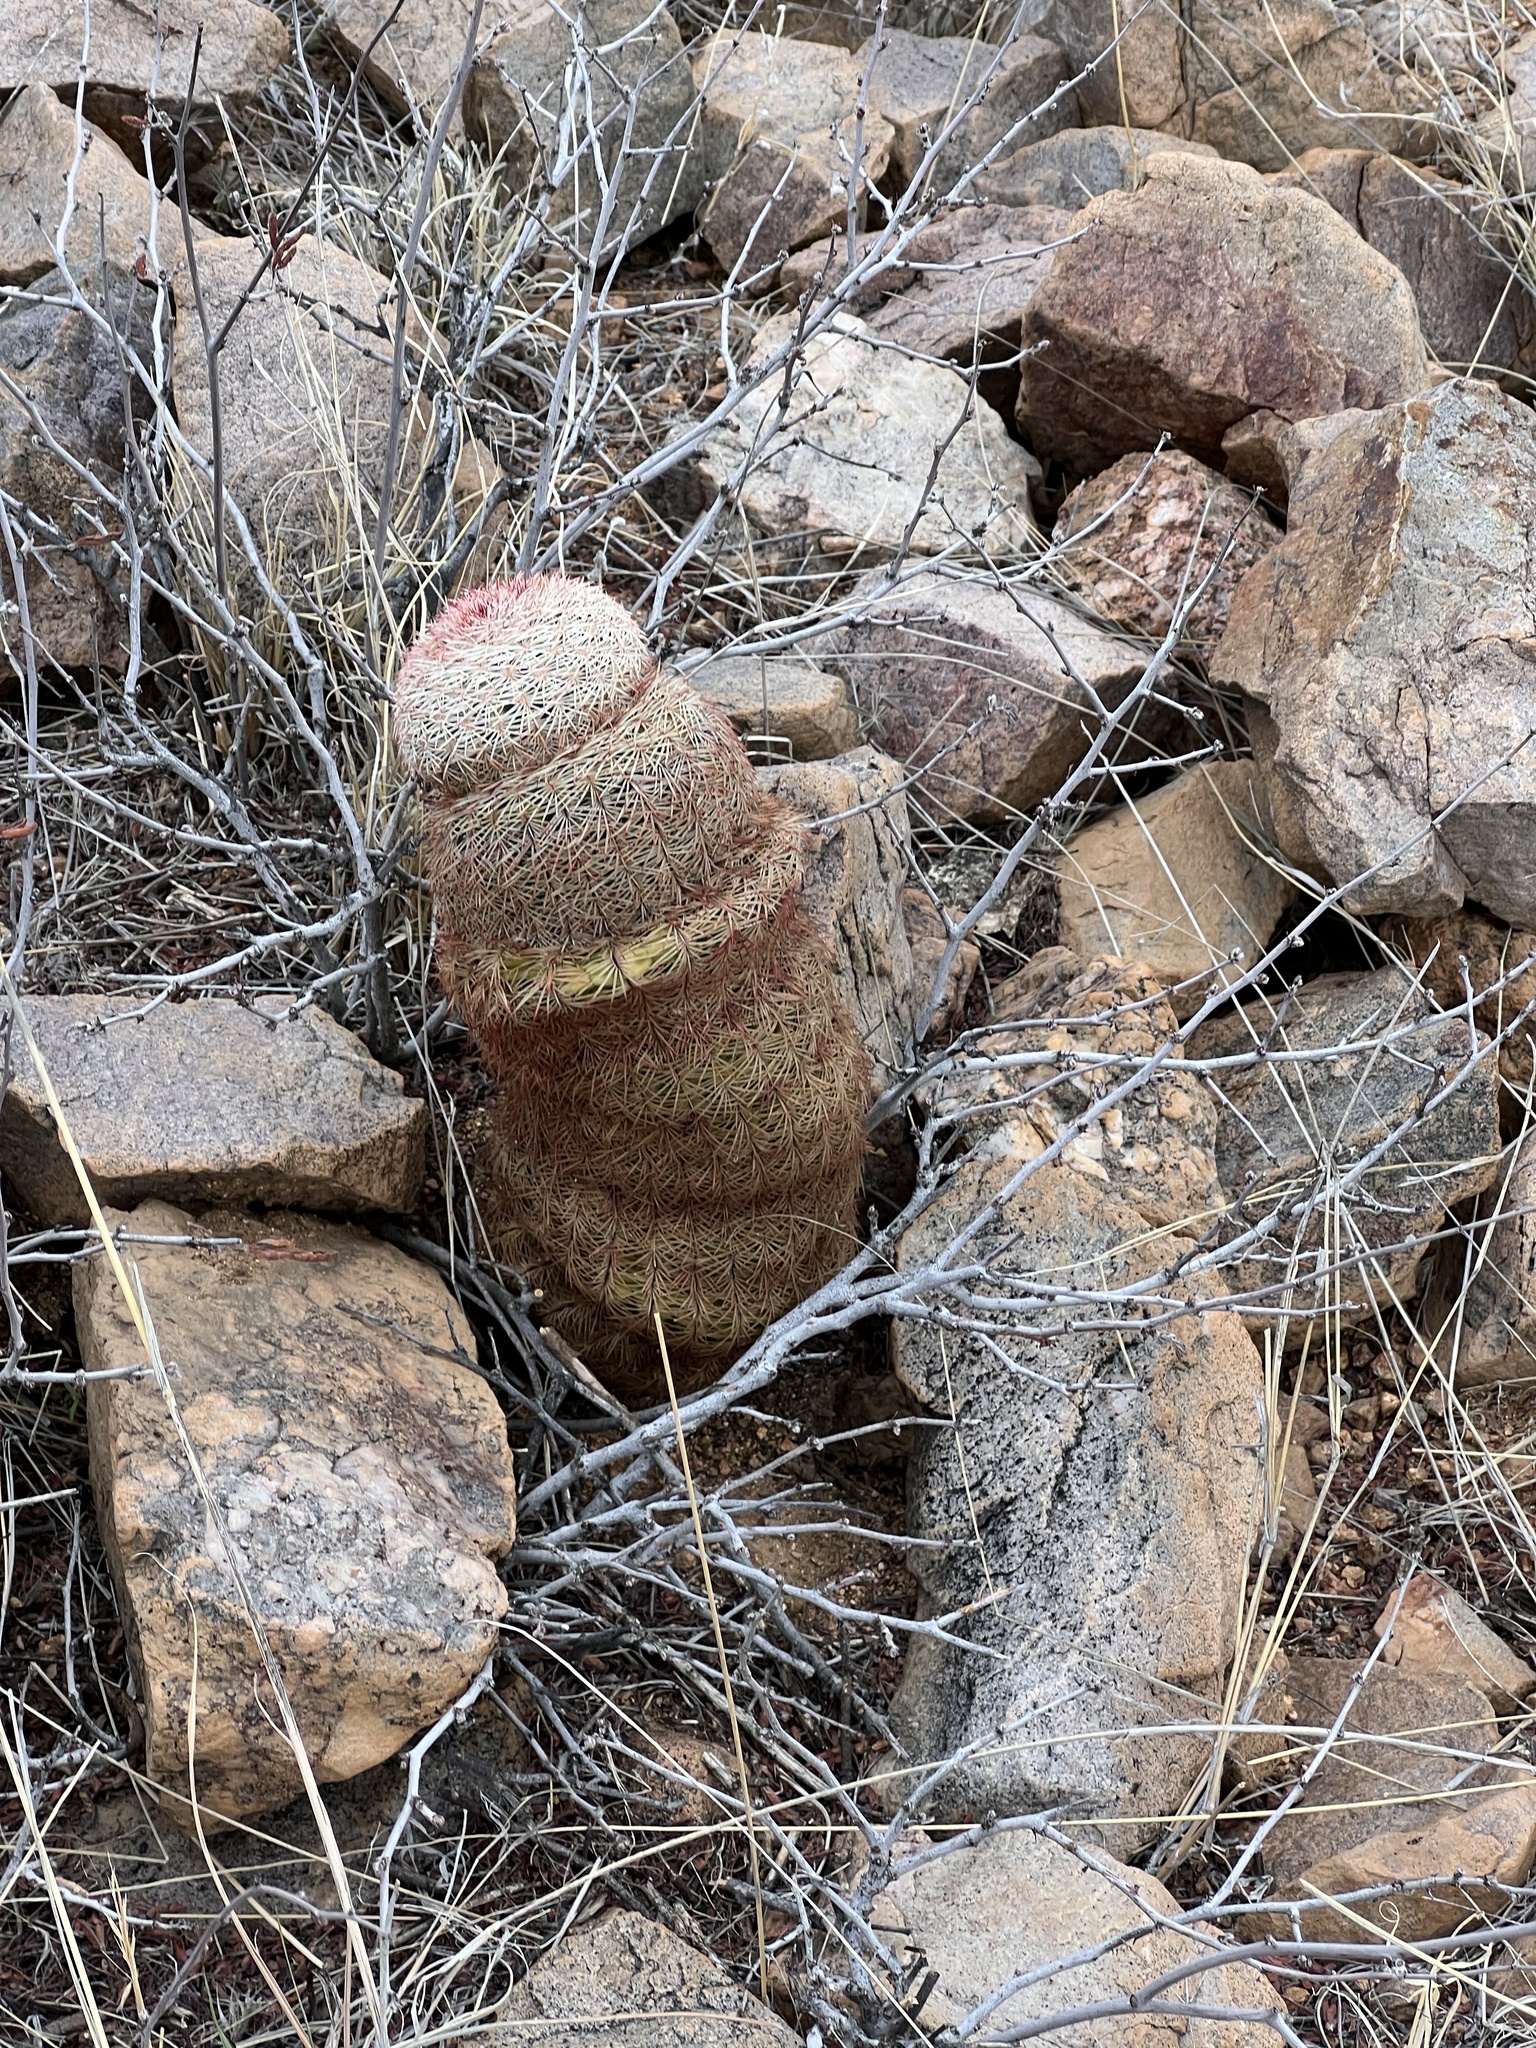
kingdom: Plantae
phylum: Tracheophyta
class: Magnoliopsida
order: Caryophyllales
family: Cactaceae
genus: Echinocereus
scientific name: Echinocereus rigidissimus
